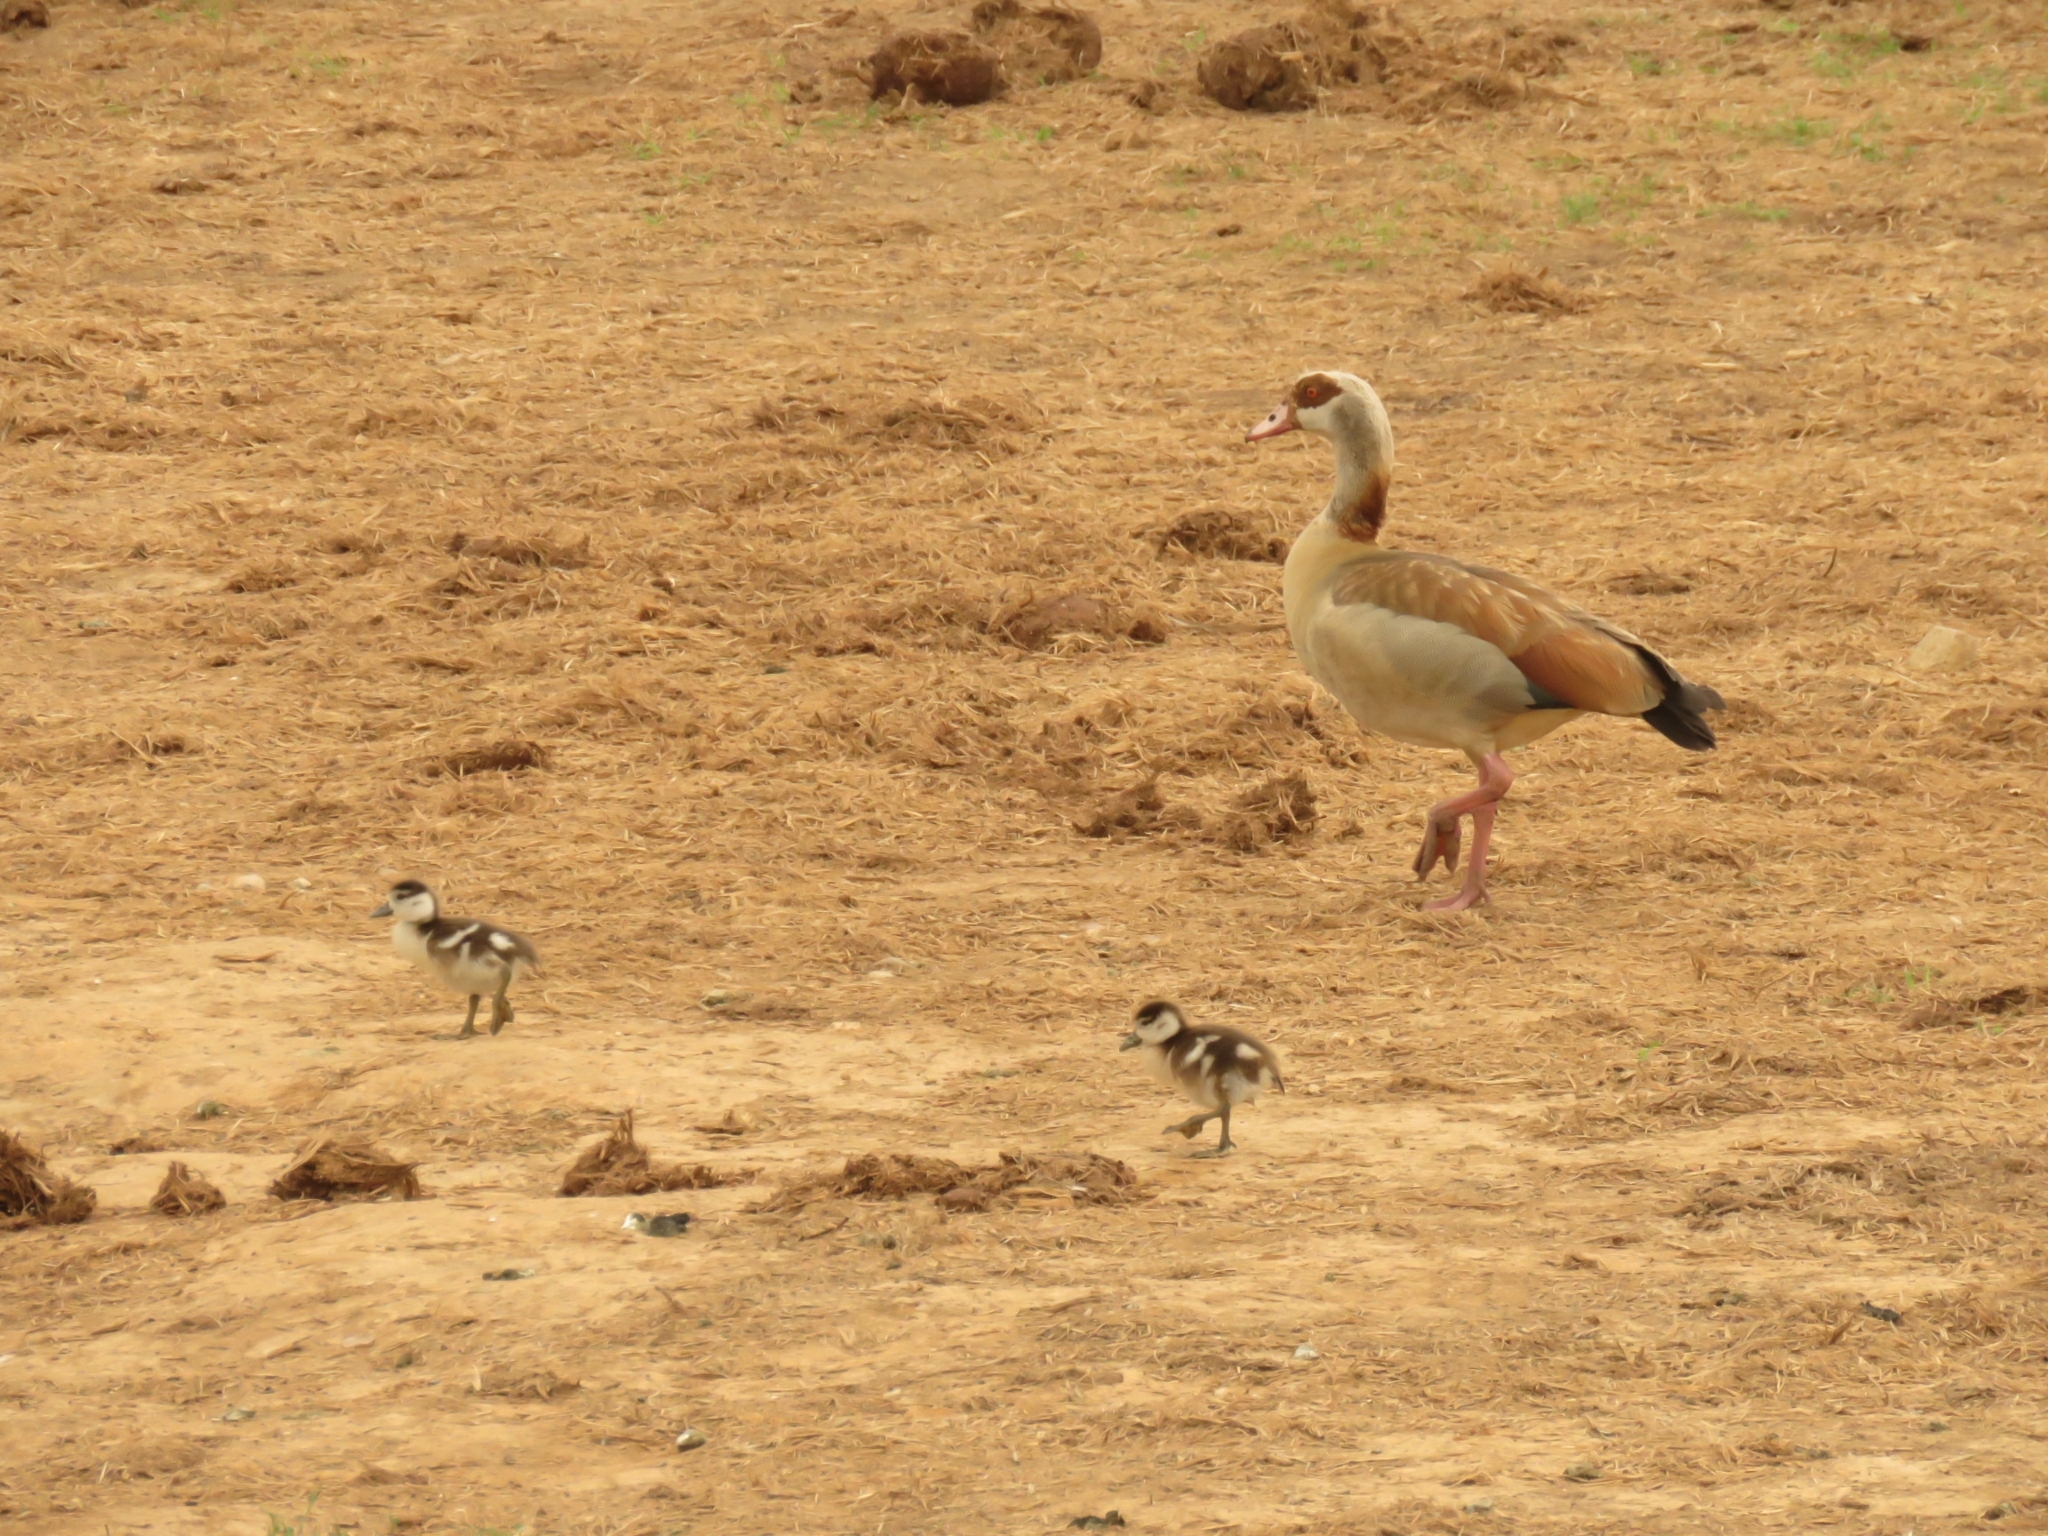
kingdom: Animalia
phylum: Chordata
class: Aves
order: Anseriformes
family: Anatidae
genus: Alopochen
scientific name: Alopochen aegyptiaca
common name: Egyptian goose
